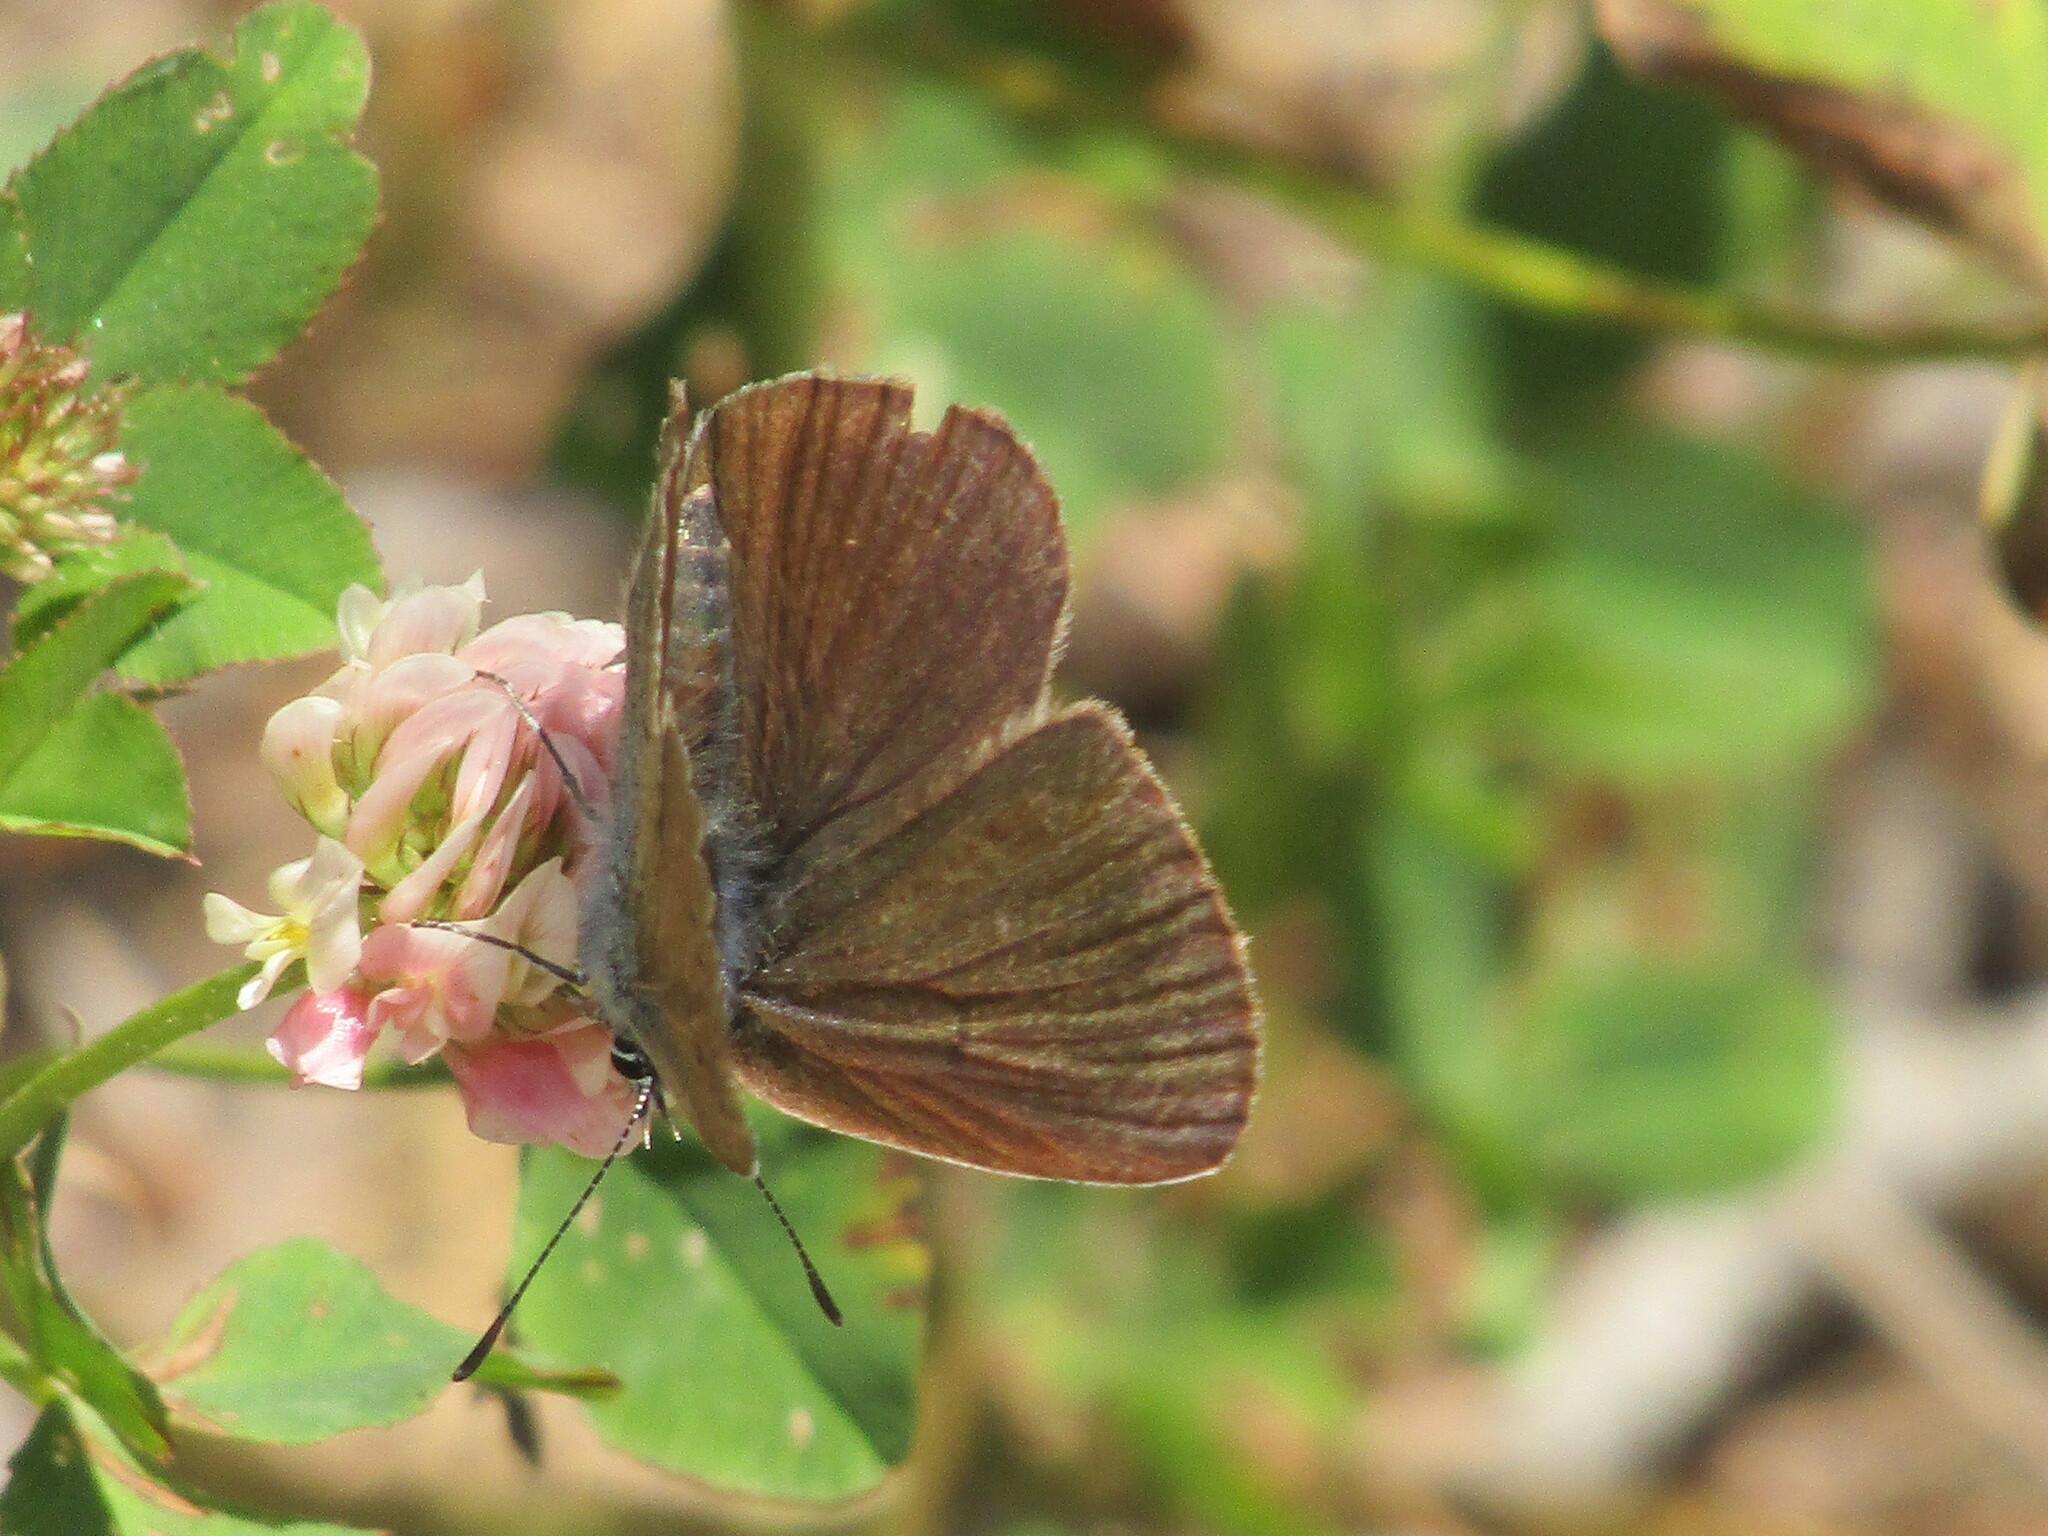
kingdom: Animalia
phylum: Arthropoda
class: Insecta
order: Lepidoptera
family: Lycaenidae
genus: Cyaniris
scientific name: Cyaniris semiargus
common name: Mazarine blue
